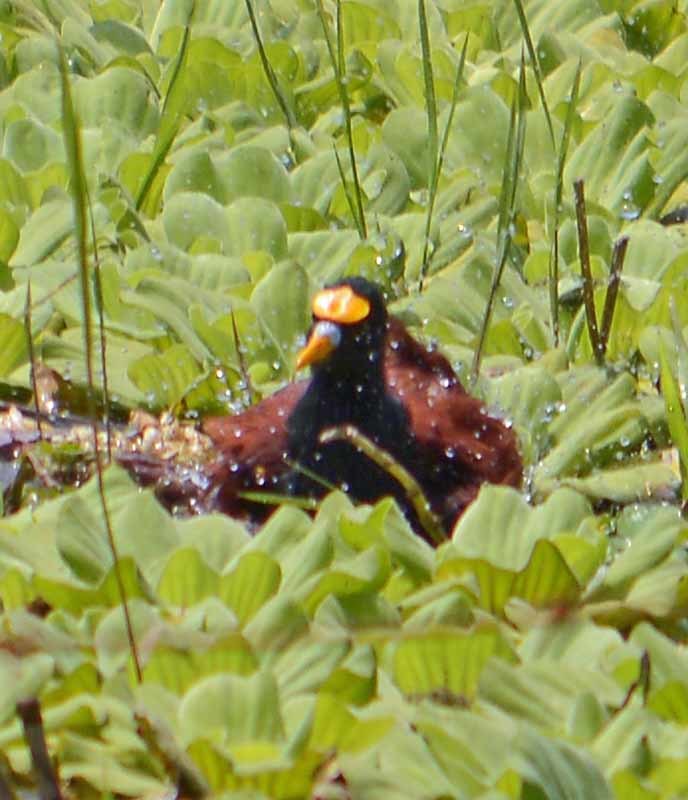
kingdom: Animalia
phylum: Chordata
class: Aves
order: Charadriiformes
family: Jacanidae
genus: Jacana
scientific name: Jacana spinosa
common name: Northern jacana
